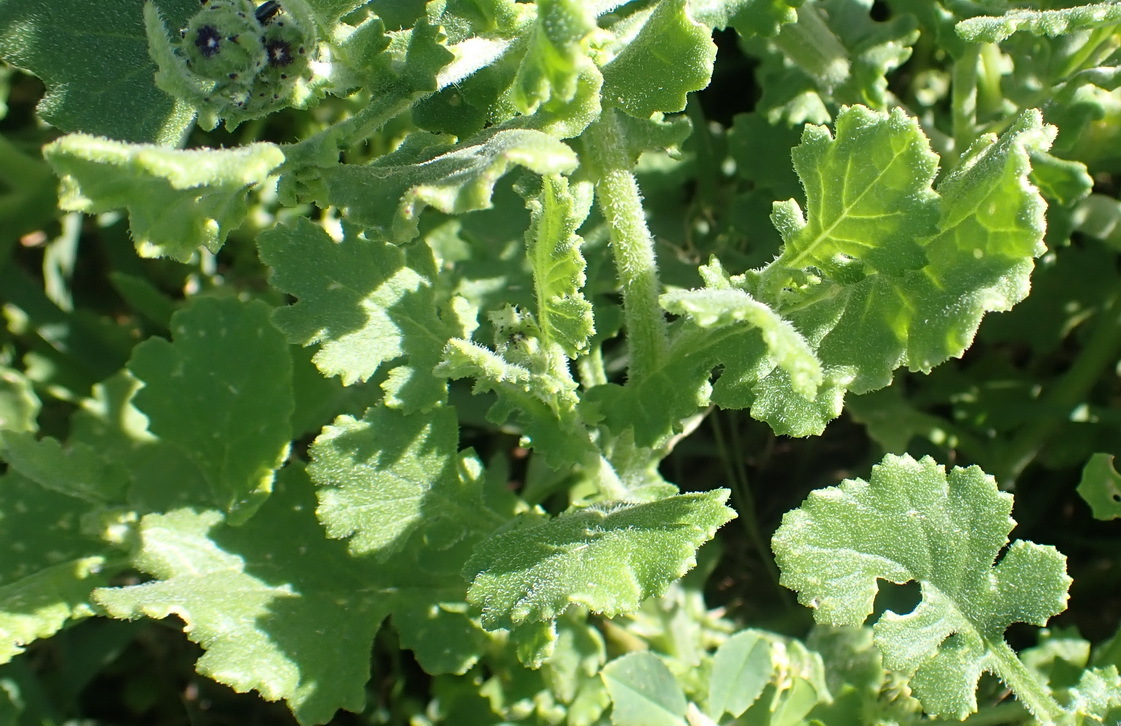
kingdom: Plantae
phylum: Tracheophyta
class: Magnoliopsida
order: Asterales
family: Asteraceae
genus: Senecio
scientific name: Senecio elegans
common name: Purple groundsel
